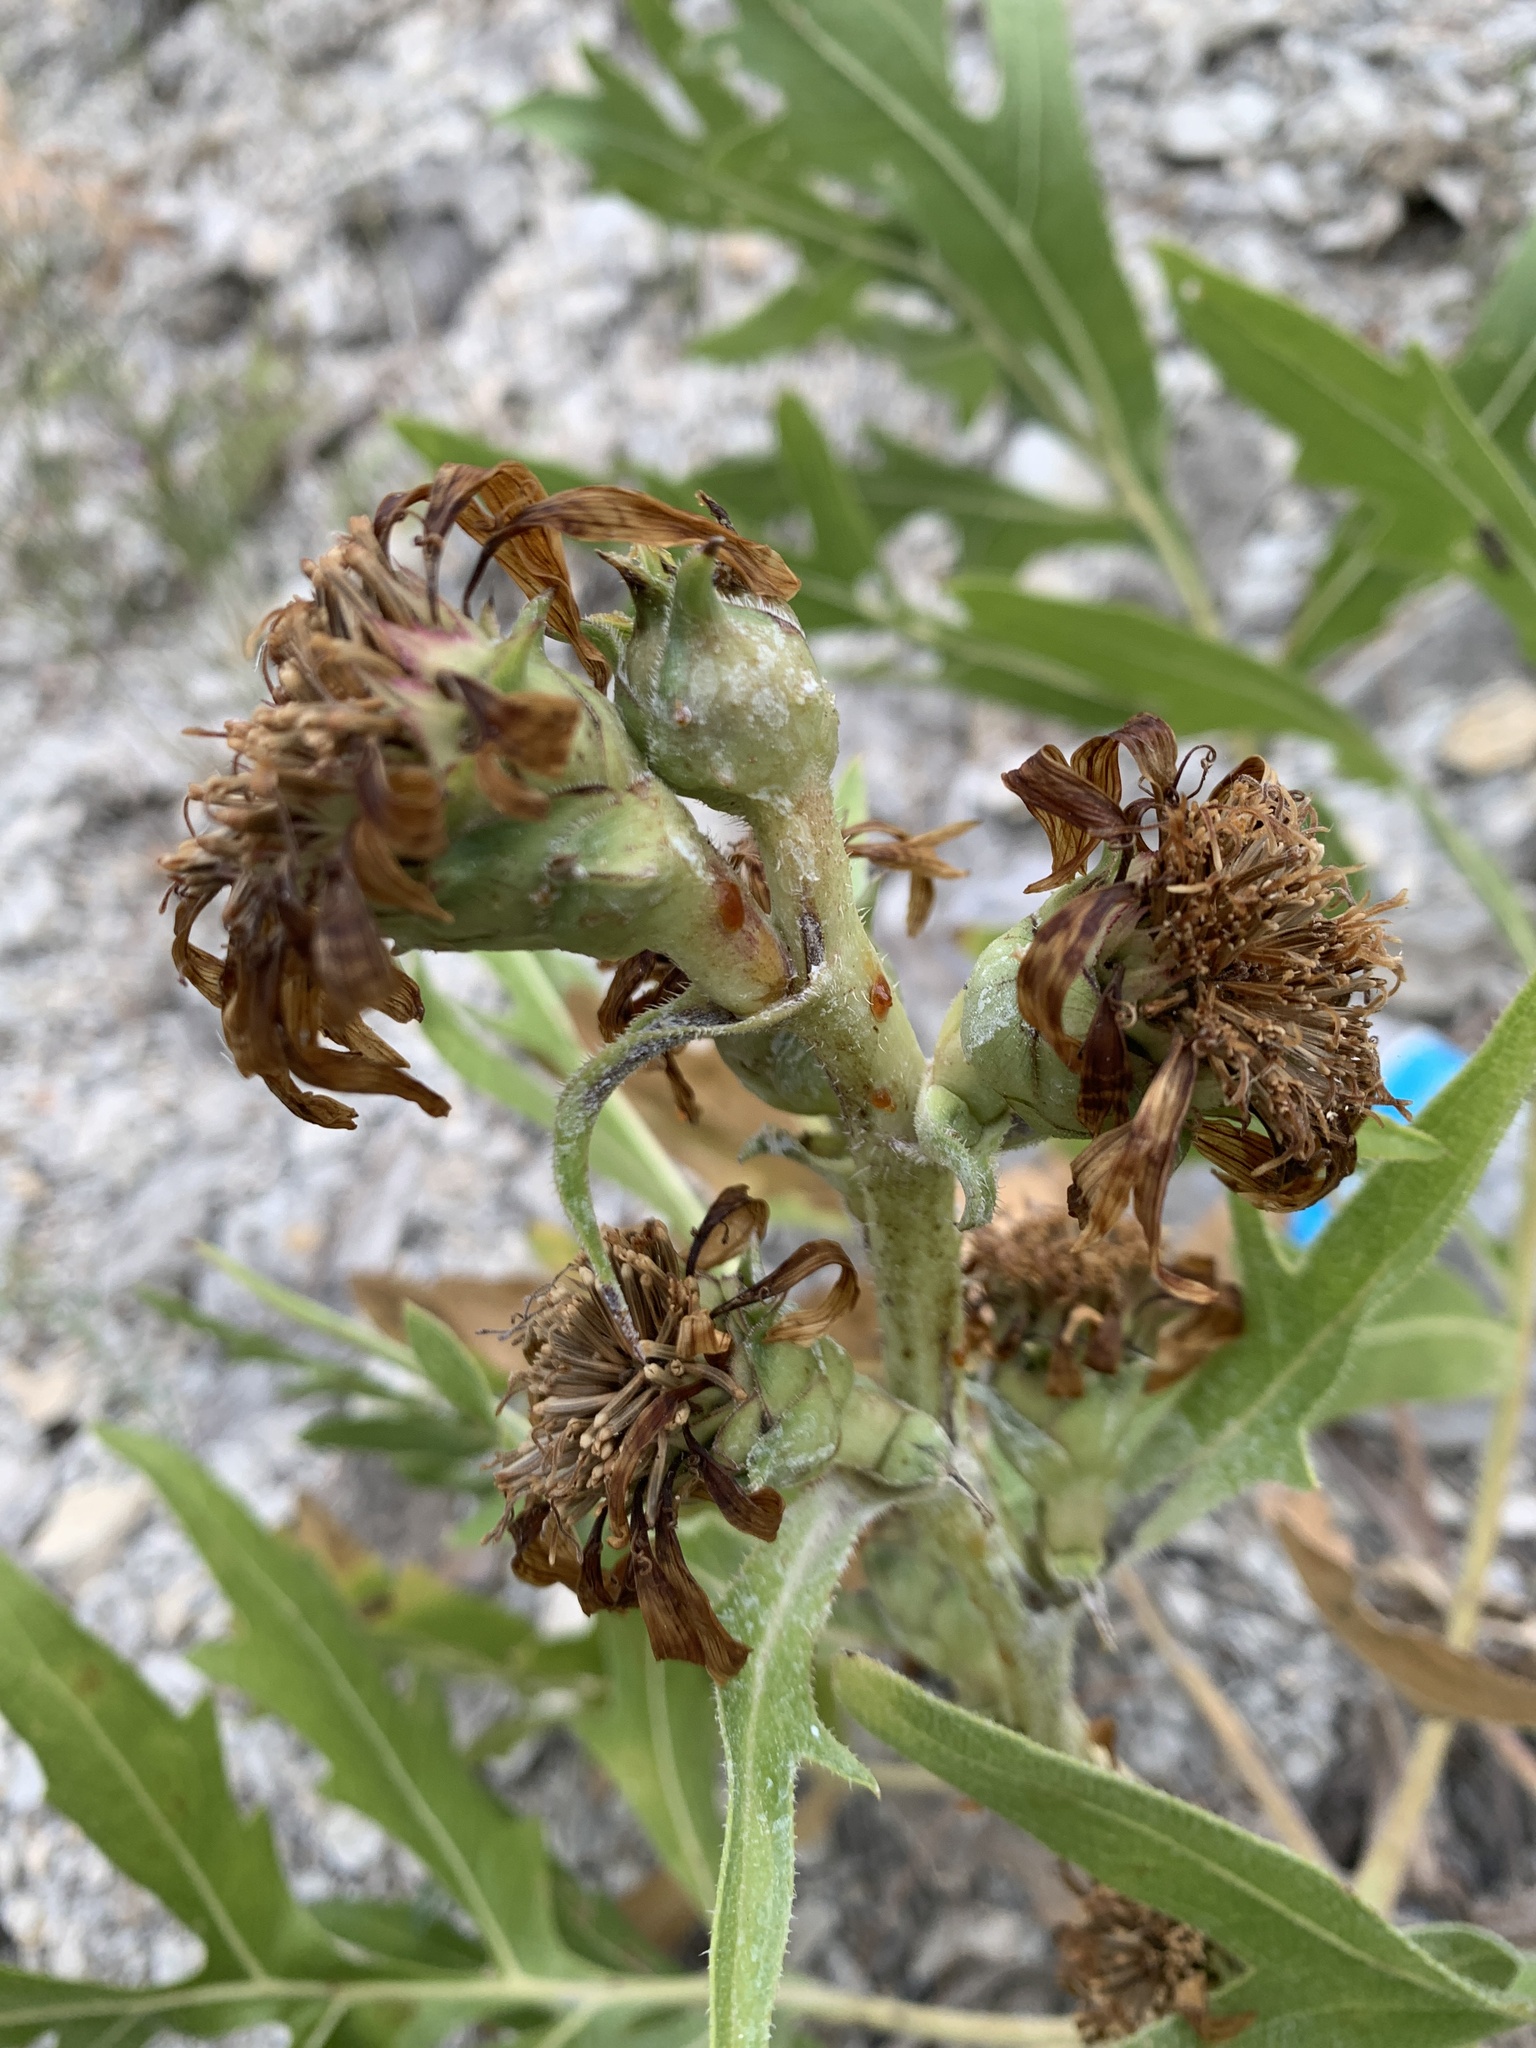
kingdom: Plantae
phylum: Tracheophyta
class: Magnoliopsida
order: Asterales
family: Asteraceae
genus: Silphium
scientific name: Silphium albiflorum
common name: White rosinweed
